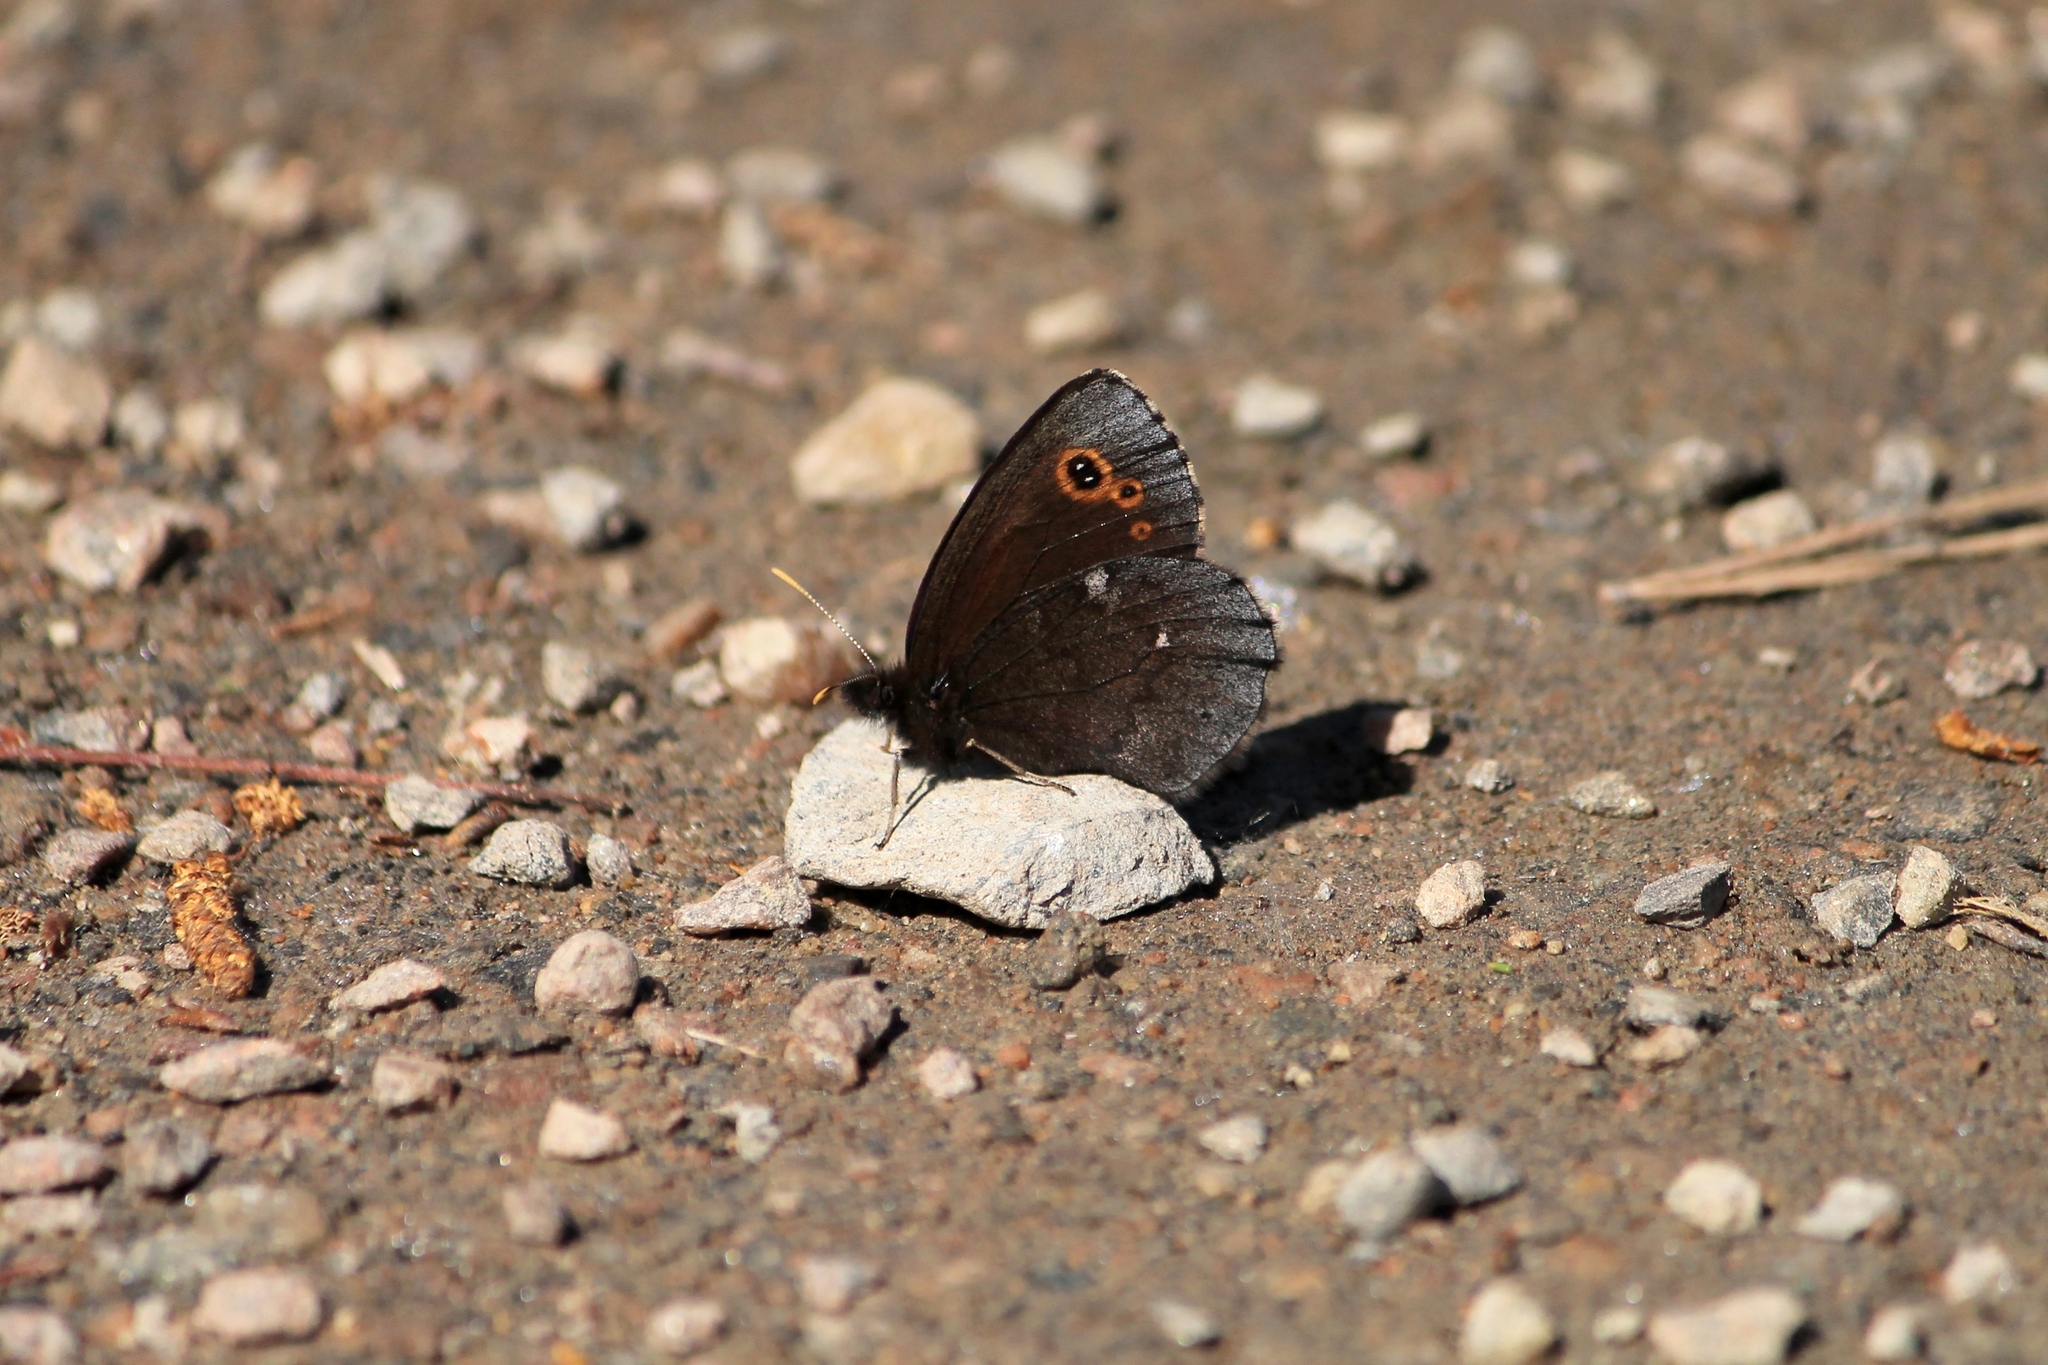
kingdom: Animalia
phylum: Arthropoda
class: Insecta
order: Lepidoptera
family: Nymphalidae
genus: Erebia
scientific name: Erebia embla
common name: Lapland ringlet
